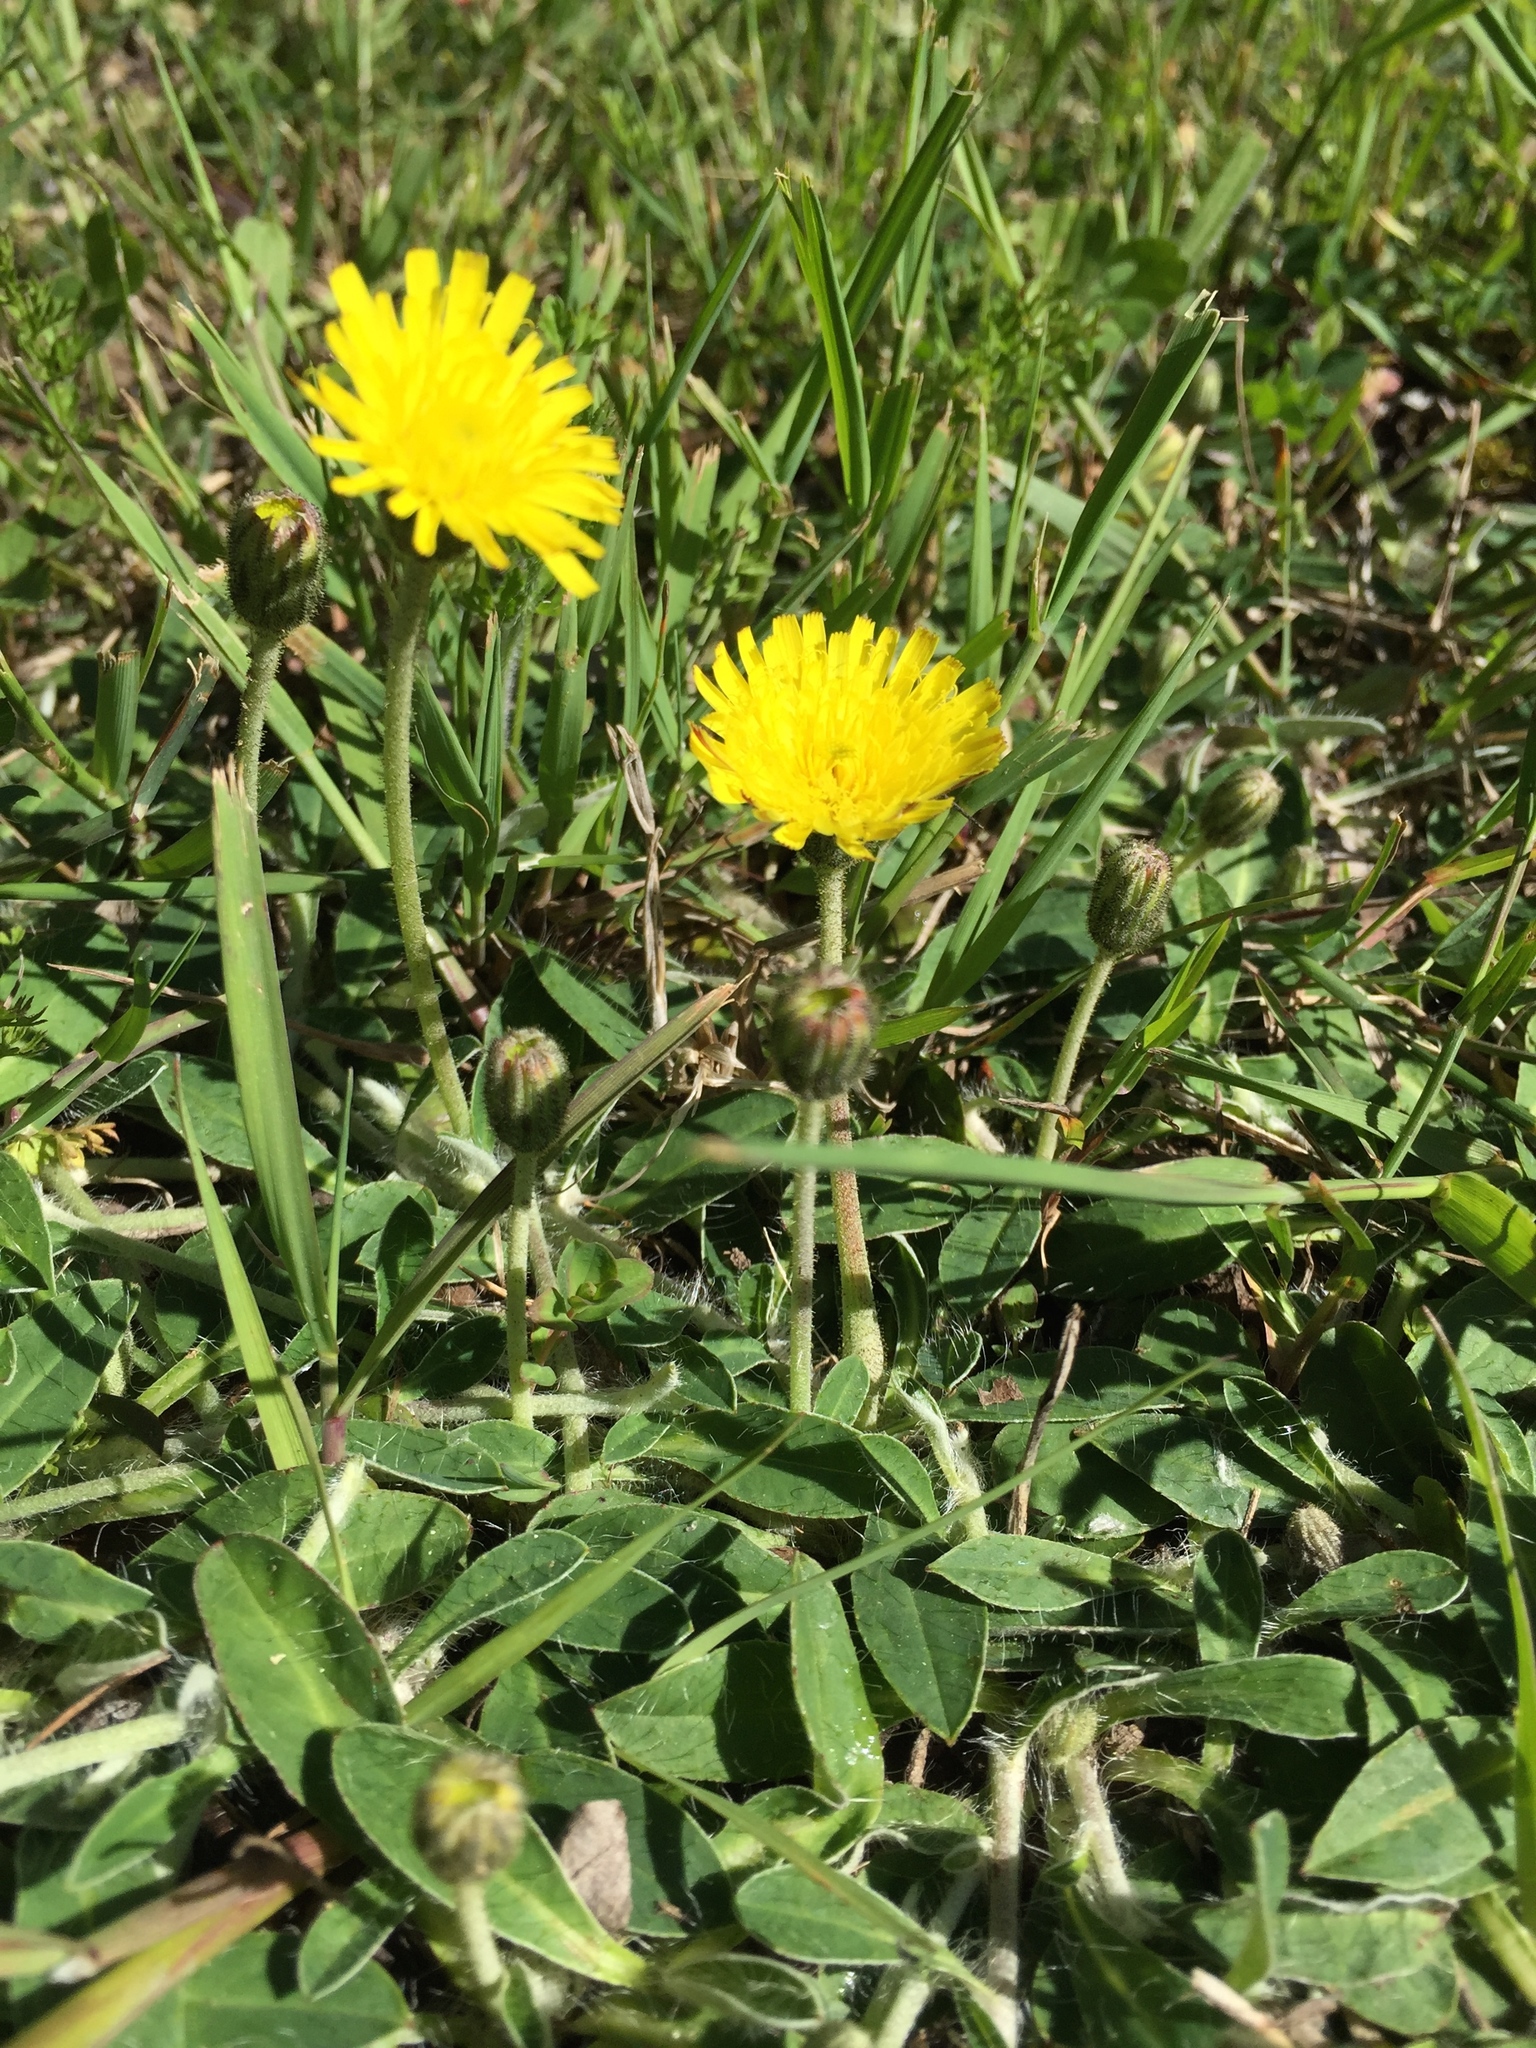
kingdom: Plantae
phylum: Tracheophyta
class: Magnoliopsida
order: Asterales
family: Asteraceae
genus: Pilosella
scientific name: Pilosella officinarum
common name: Mouse-ear hawkweed
